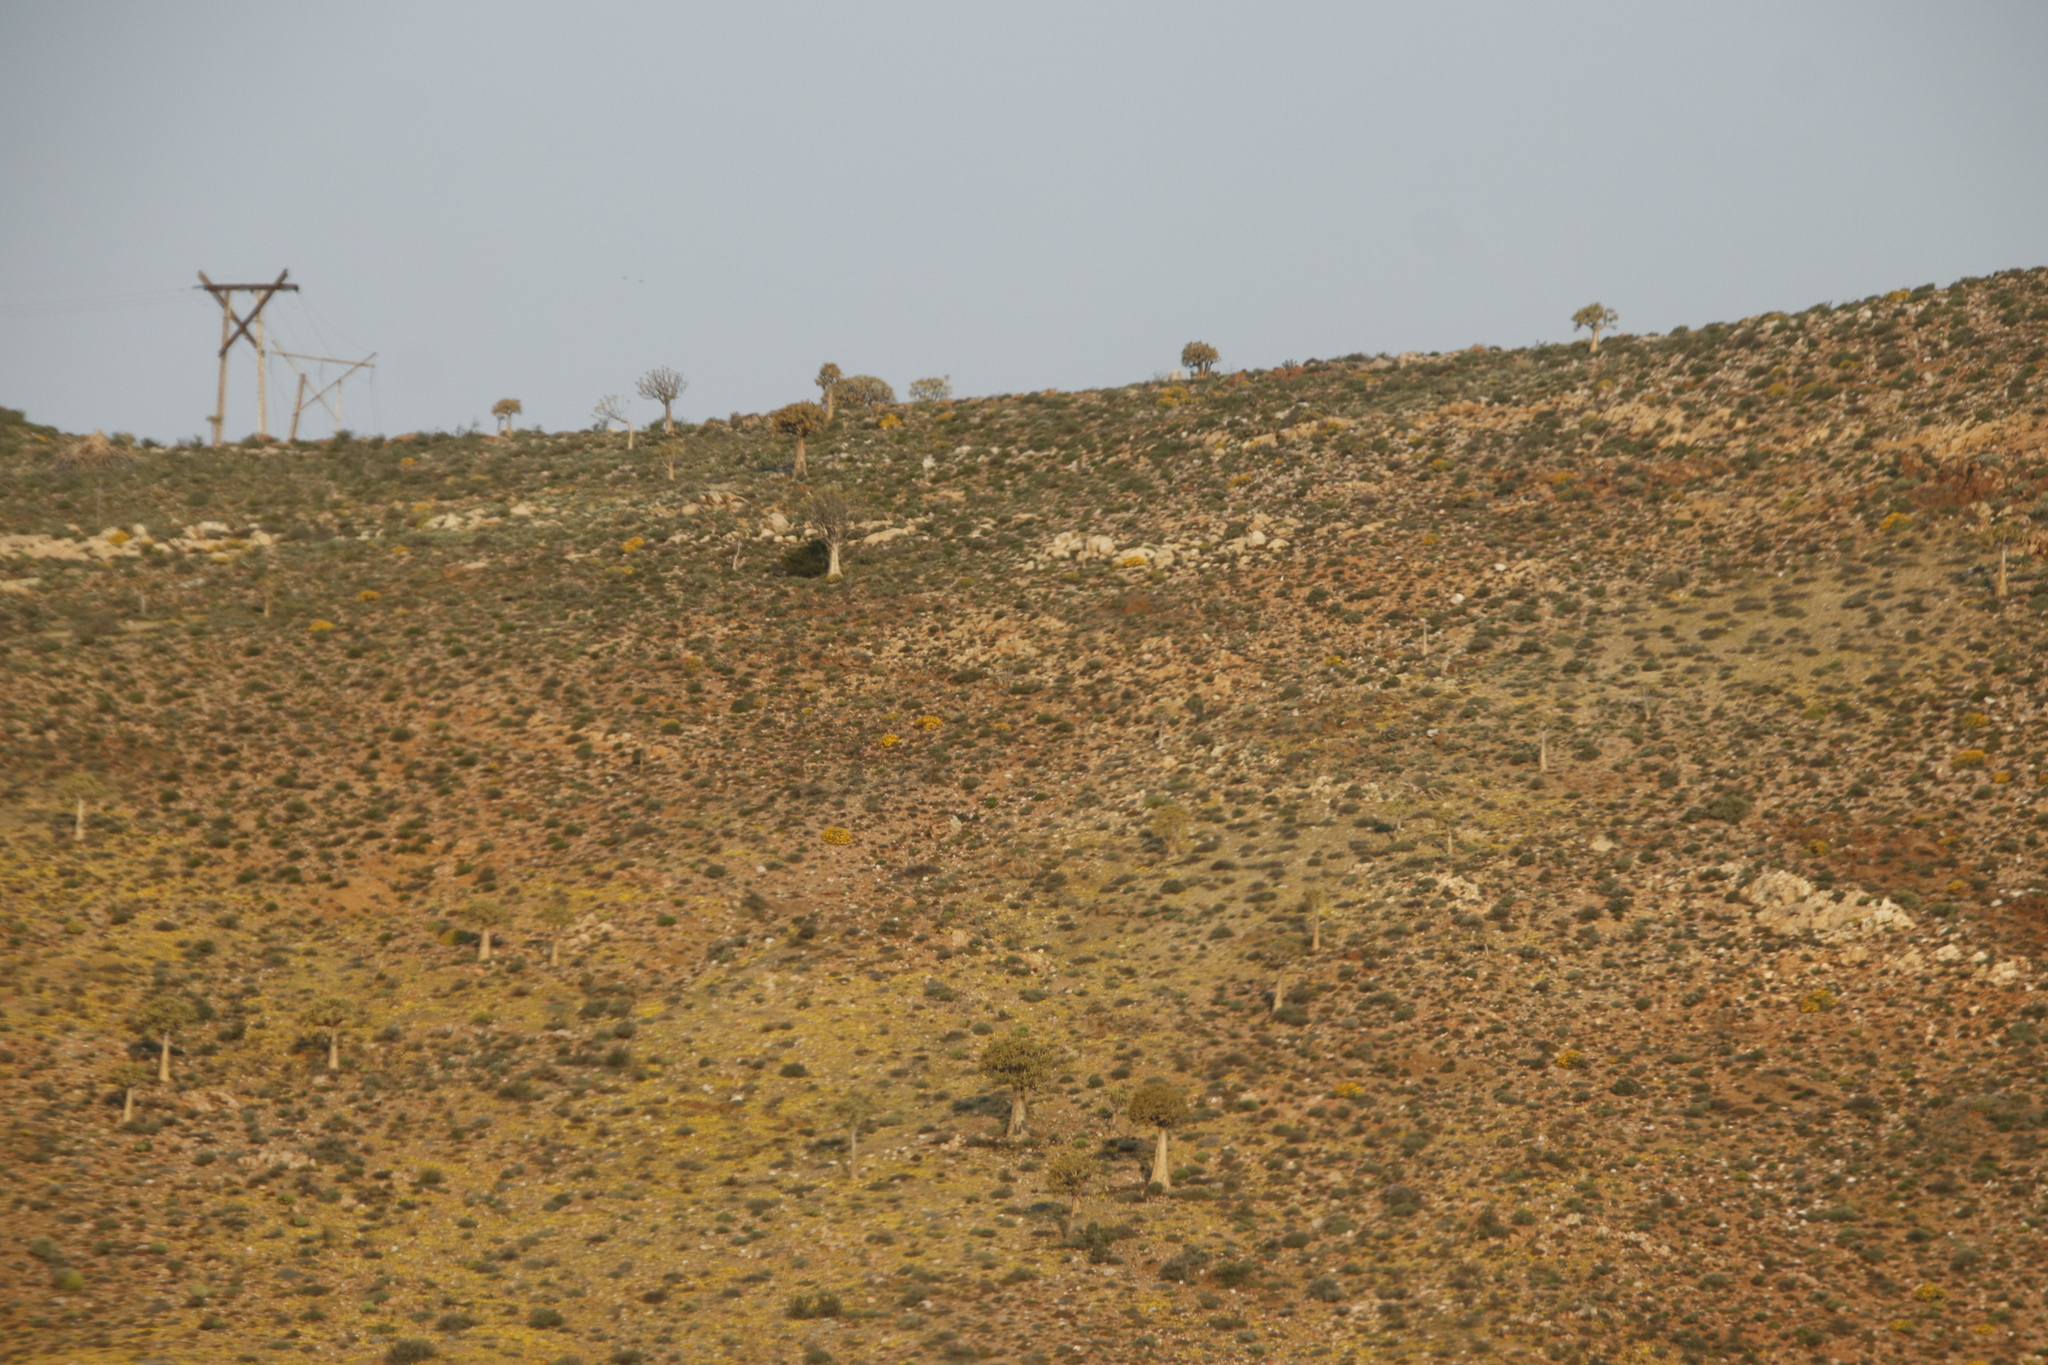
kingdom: Plantae
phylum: Tracheophyta
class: Liliopsida
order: Asparagales
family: Asphodelaceae
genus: Aloidendron
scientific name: Aloidendron dichotomum
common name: Quiver tree
